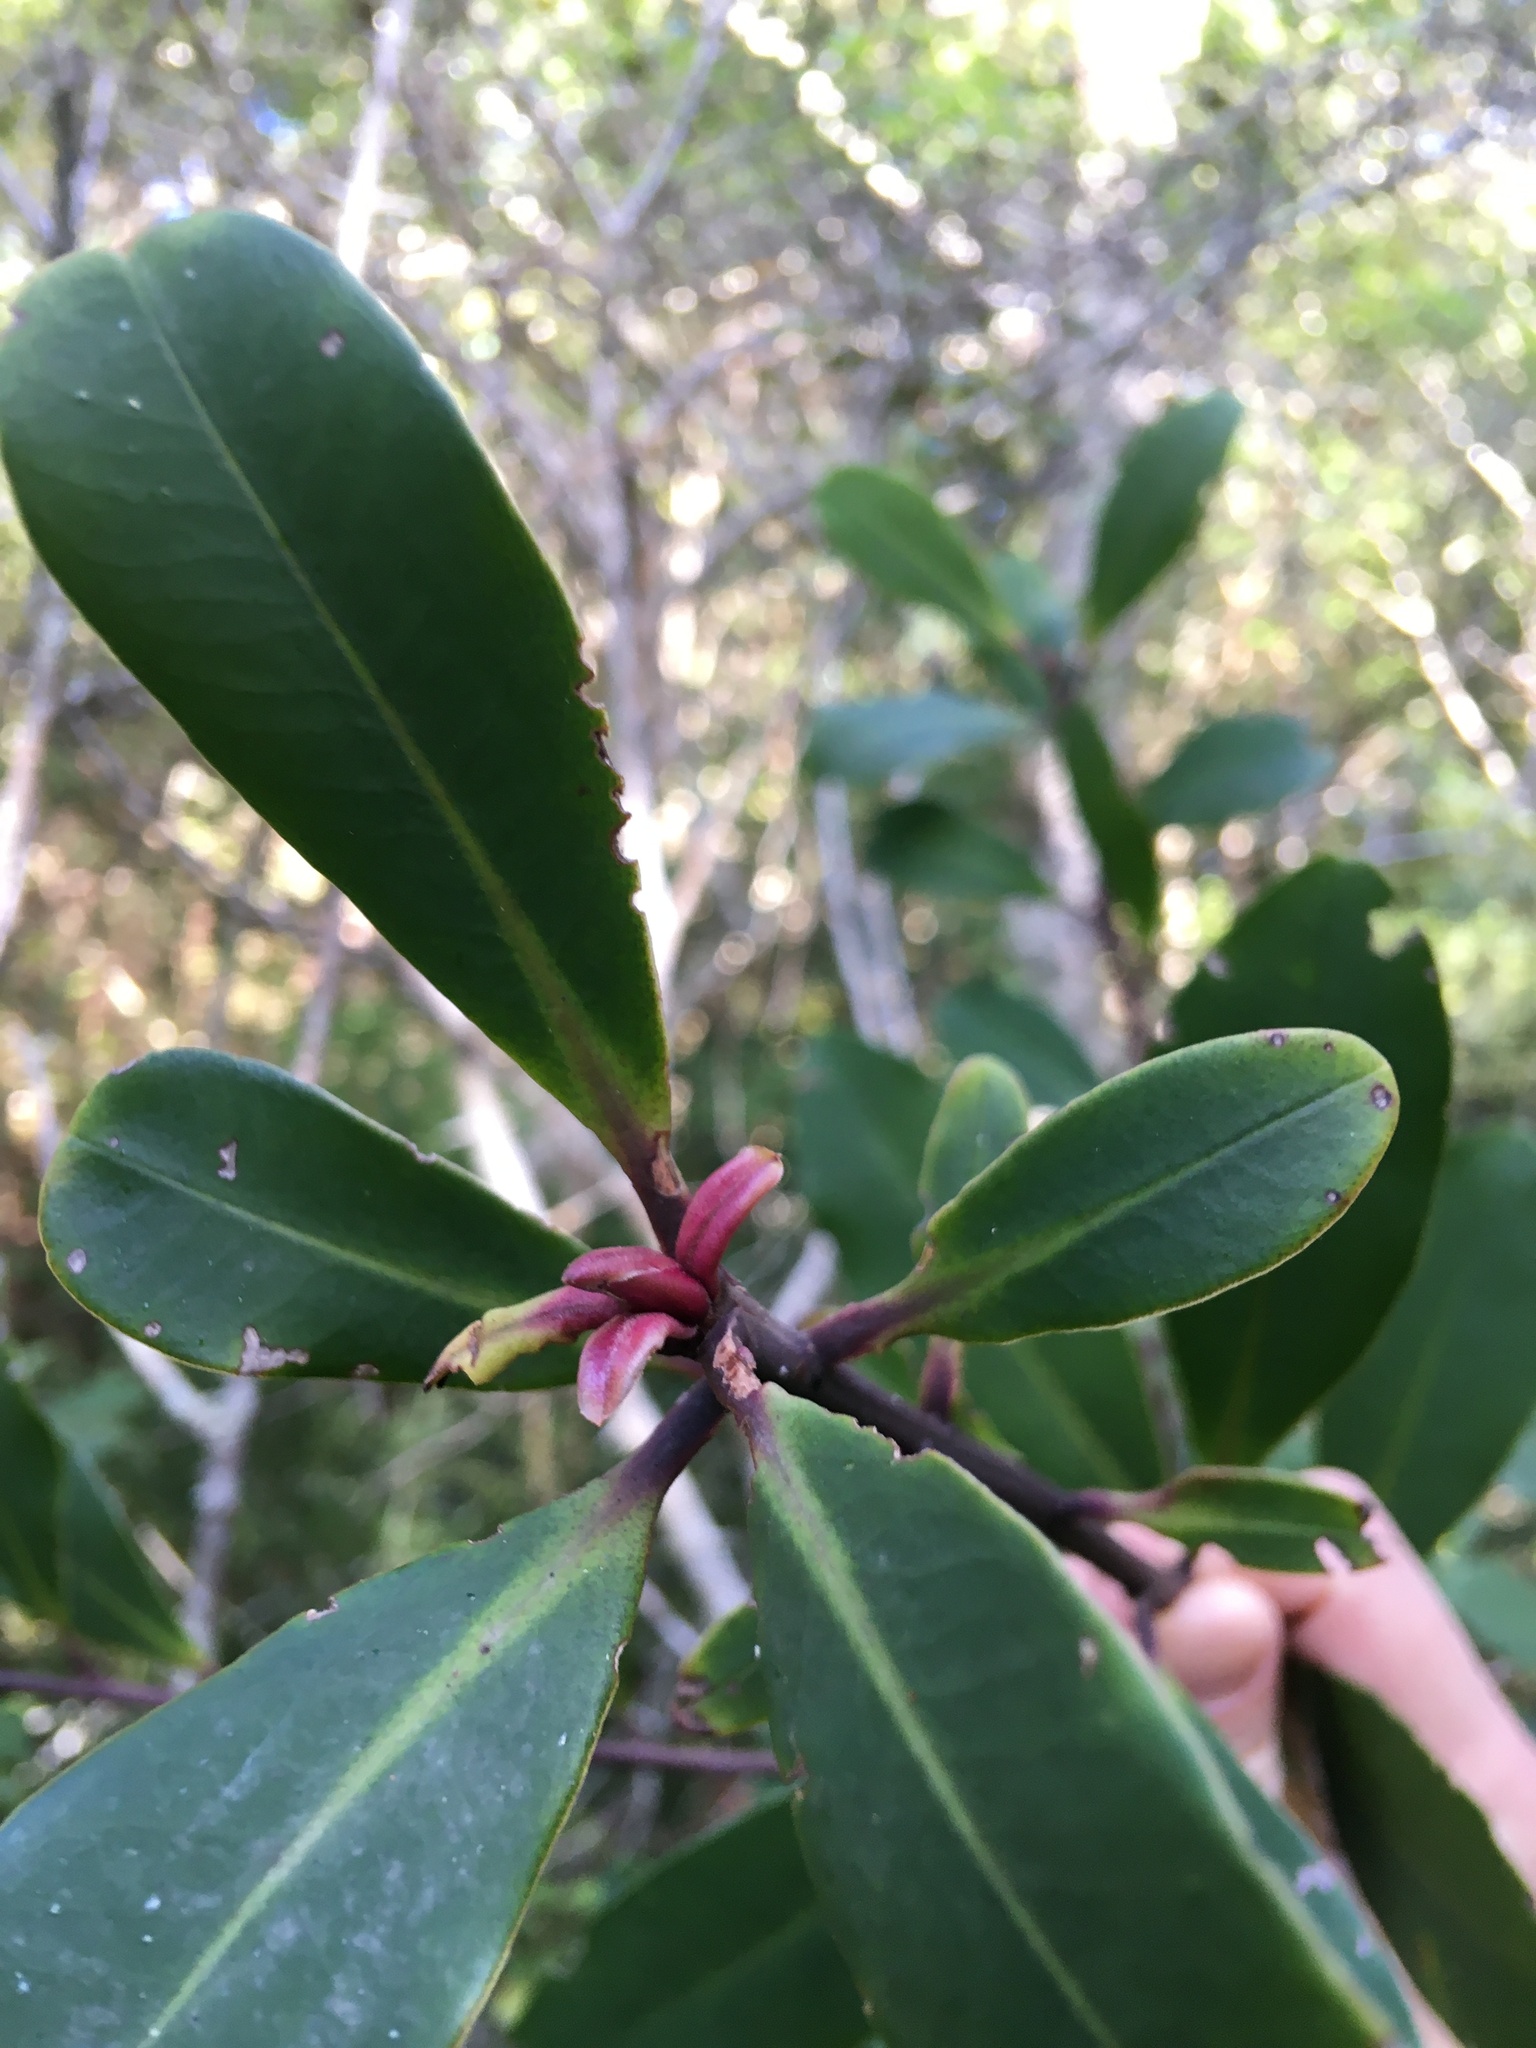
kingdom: Plantae
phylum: Tracheophyta
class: Magnoliopsida
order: Ericales
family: Primulaceae
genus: Myrsine
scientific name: Myrsine melanophloeos
